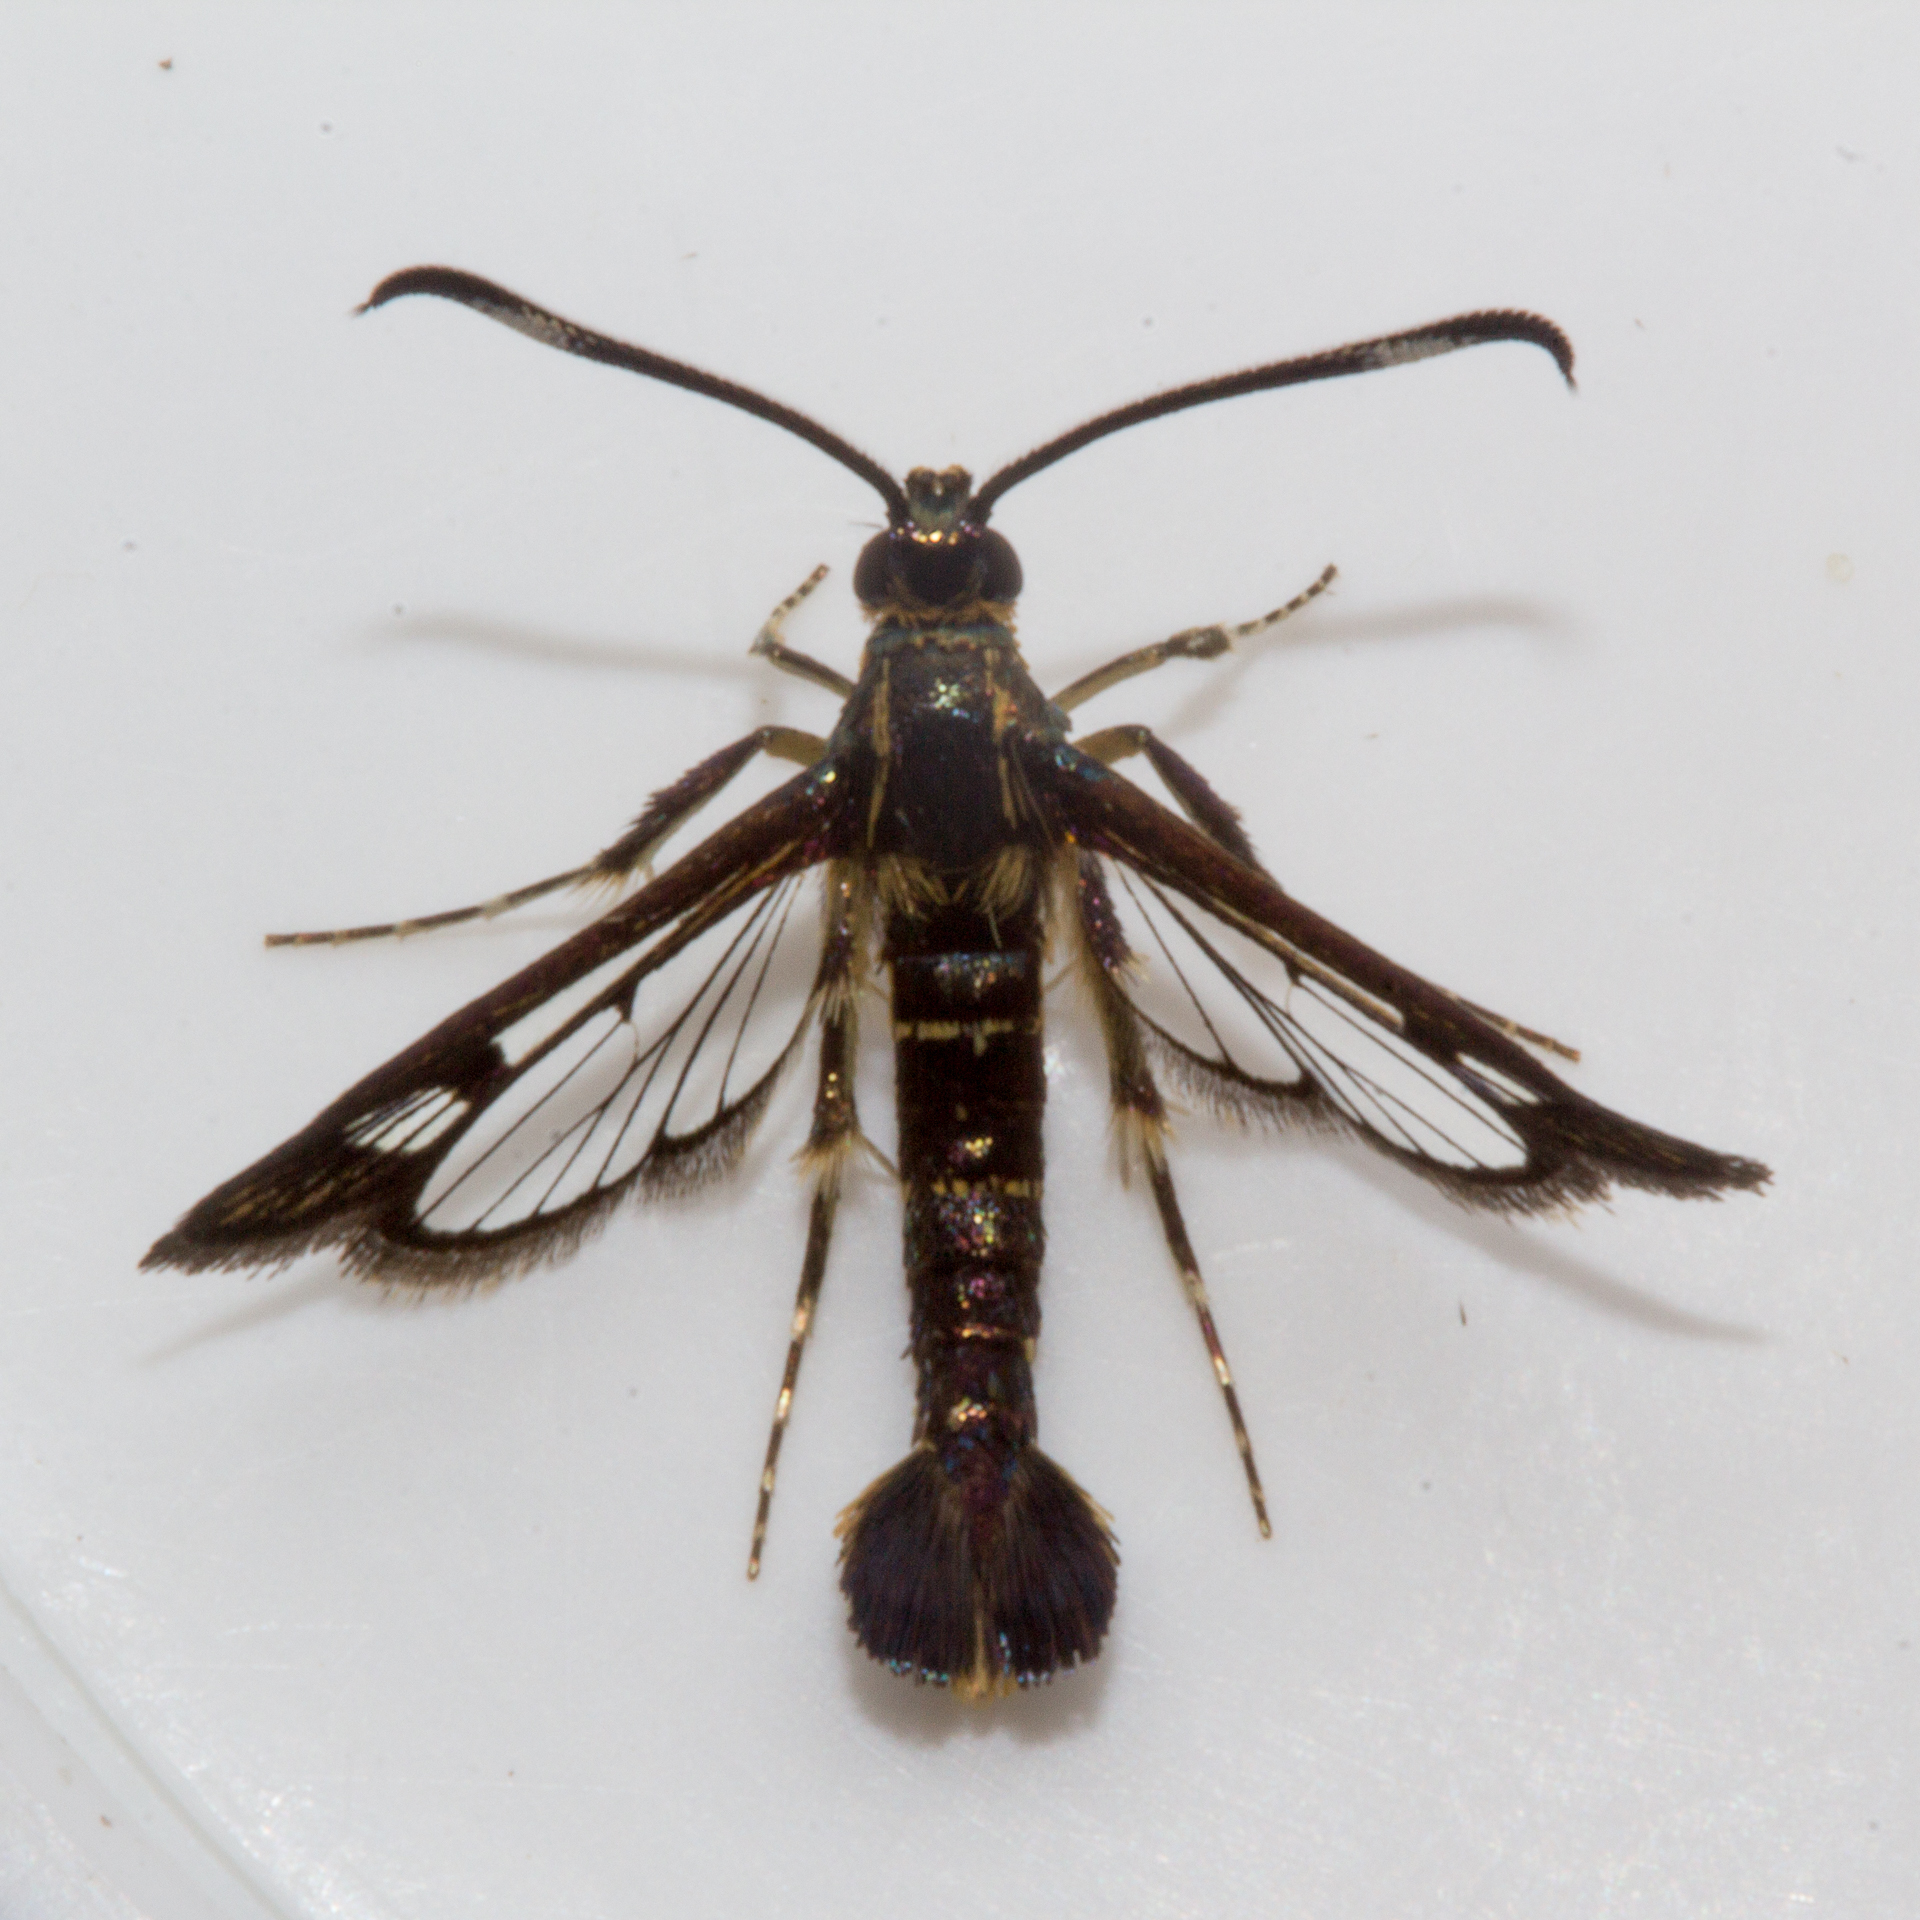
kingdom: Animalia
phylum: Arthropoda
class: Insecta
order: Lepidoptera
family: Sesiidae
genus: Carmenta
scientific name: Carmenta ithacae
